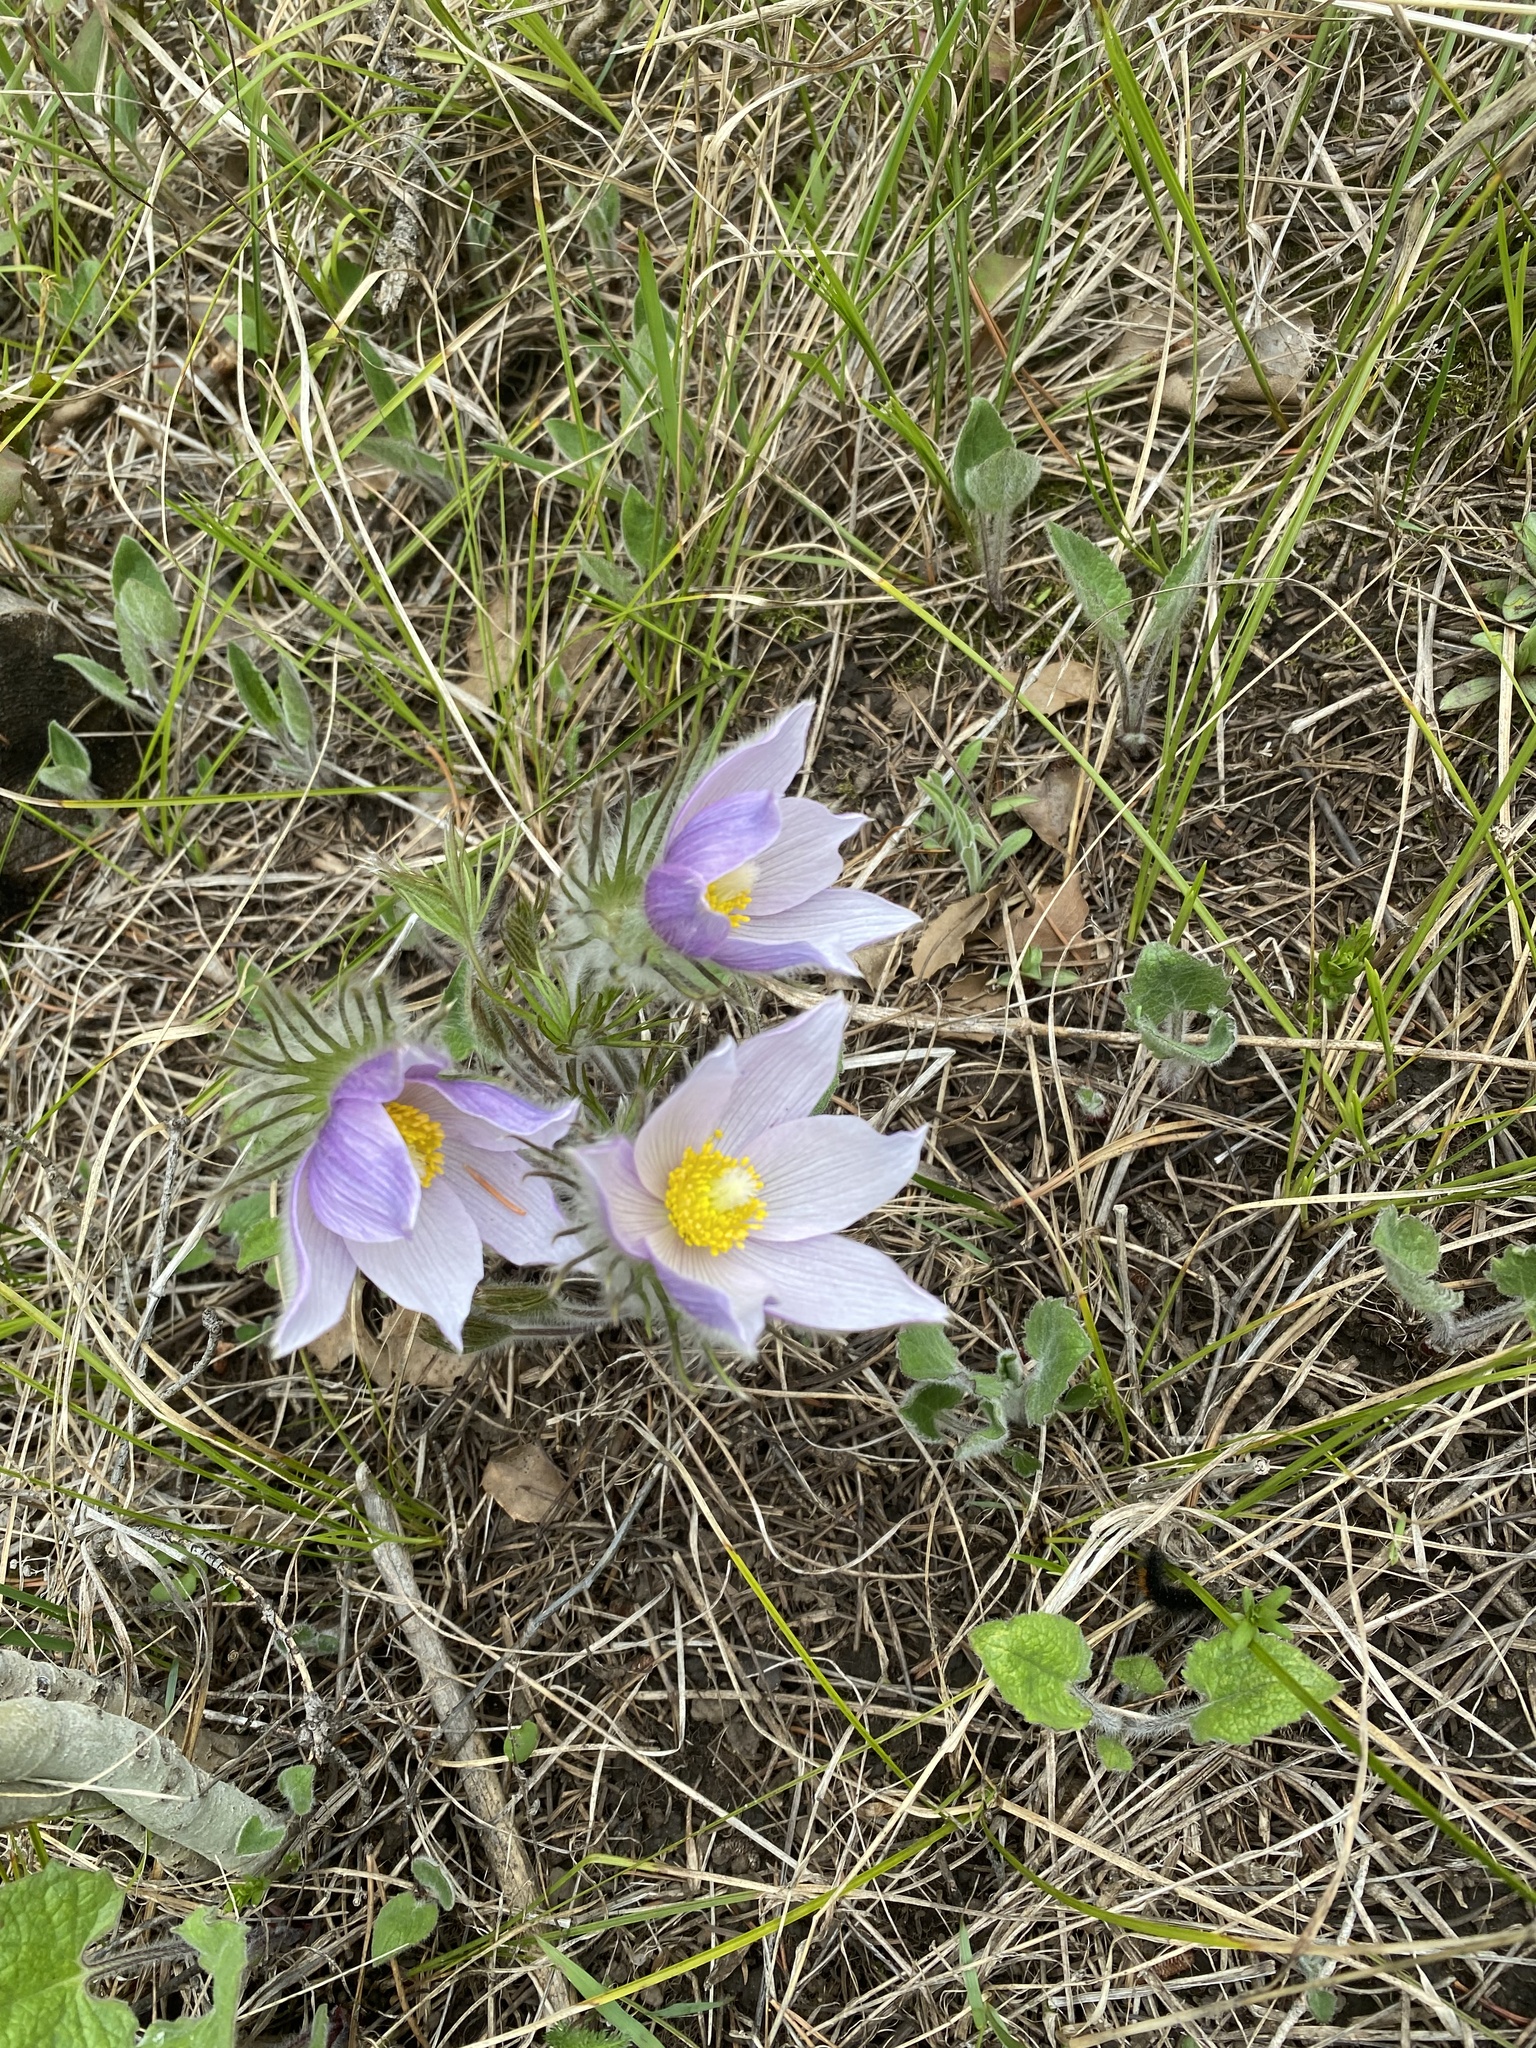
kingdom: Plantae
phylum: Tracheophyta
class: Magnoliopsida
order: Ranunculales
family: Ranunculaceae
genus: Pulsatilla
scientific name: Pulsatilla nuttalliana
